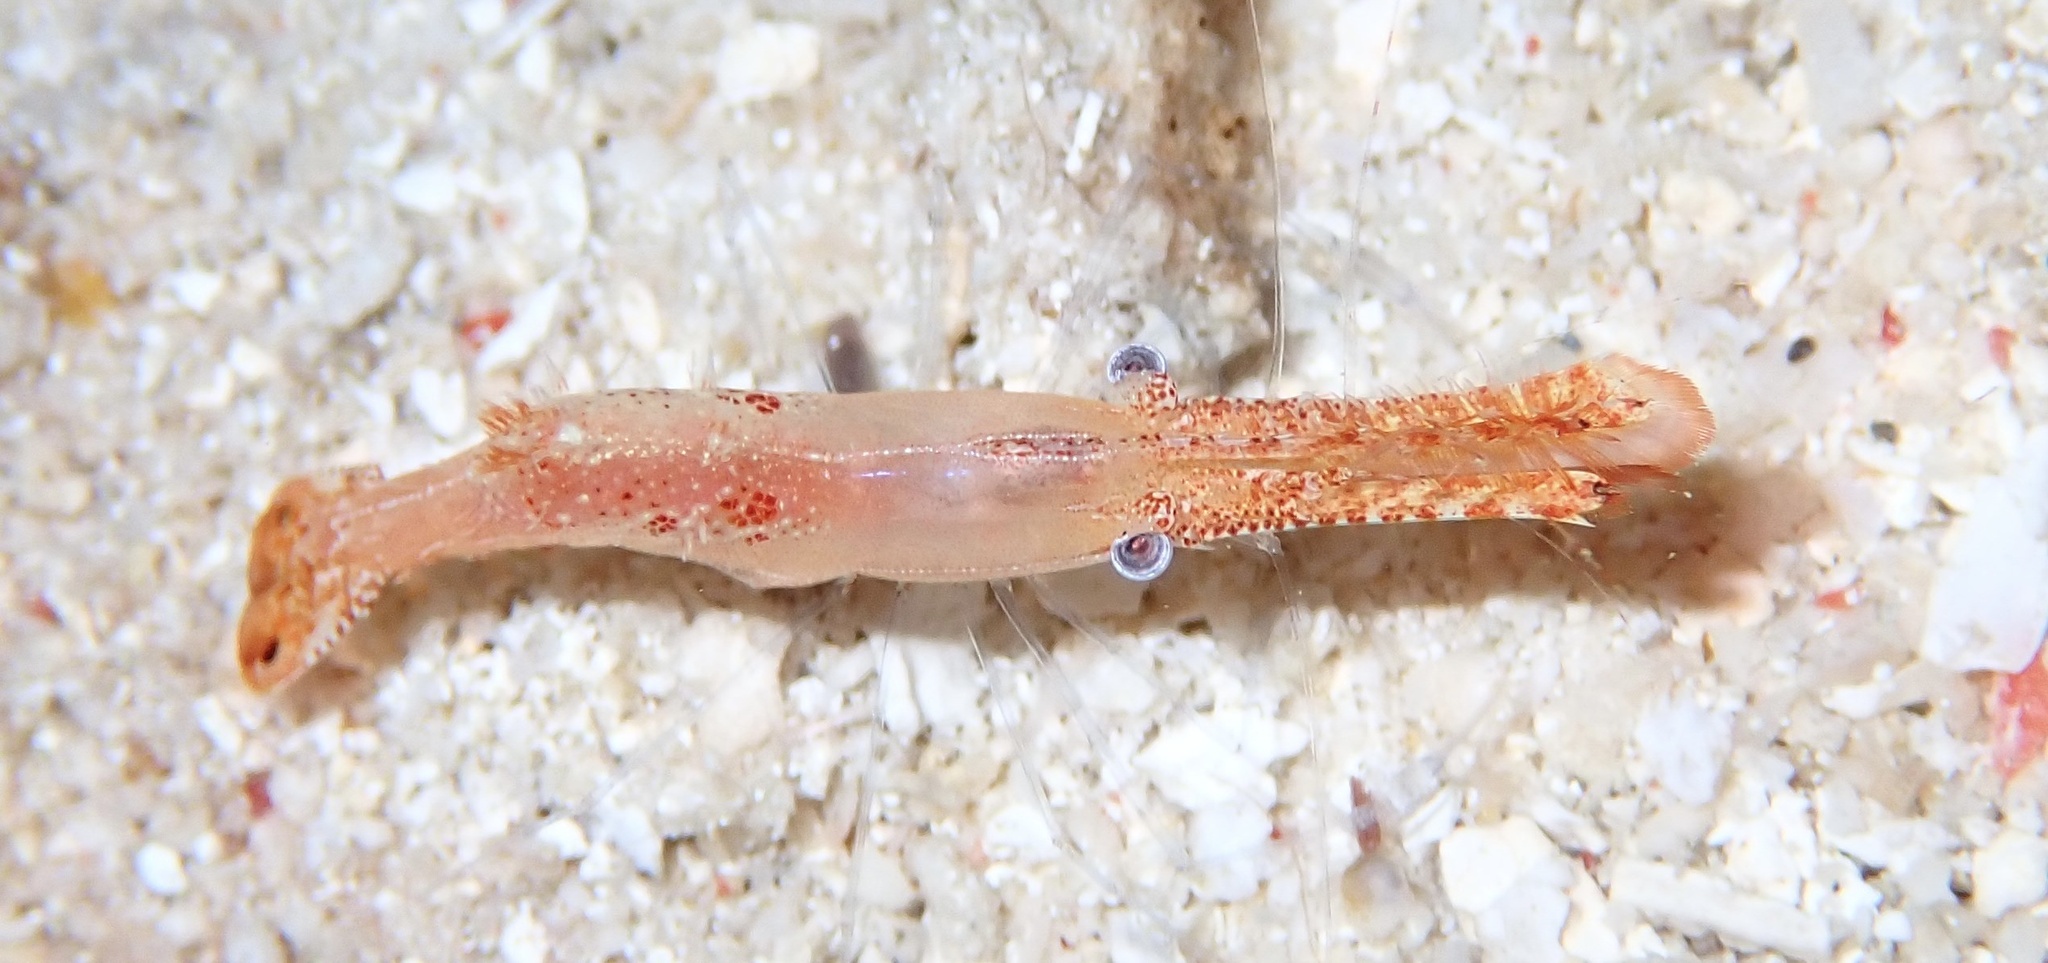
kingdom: Animalia
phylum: Arthropoda
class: Malacostraca
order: Decapoda
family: Palaemonidae
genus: Leander
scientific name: Leander plumosus
